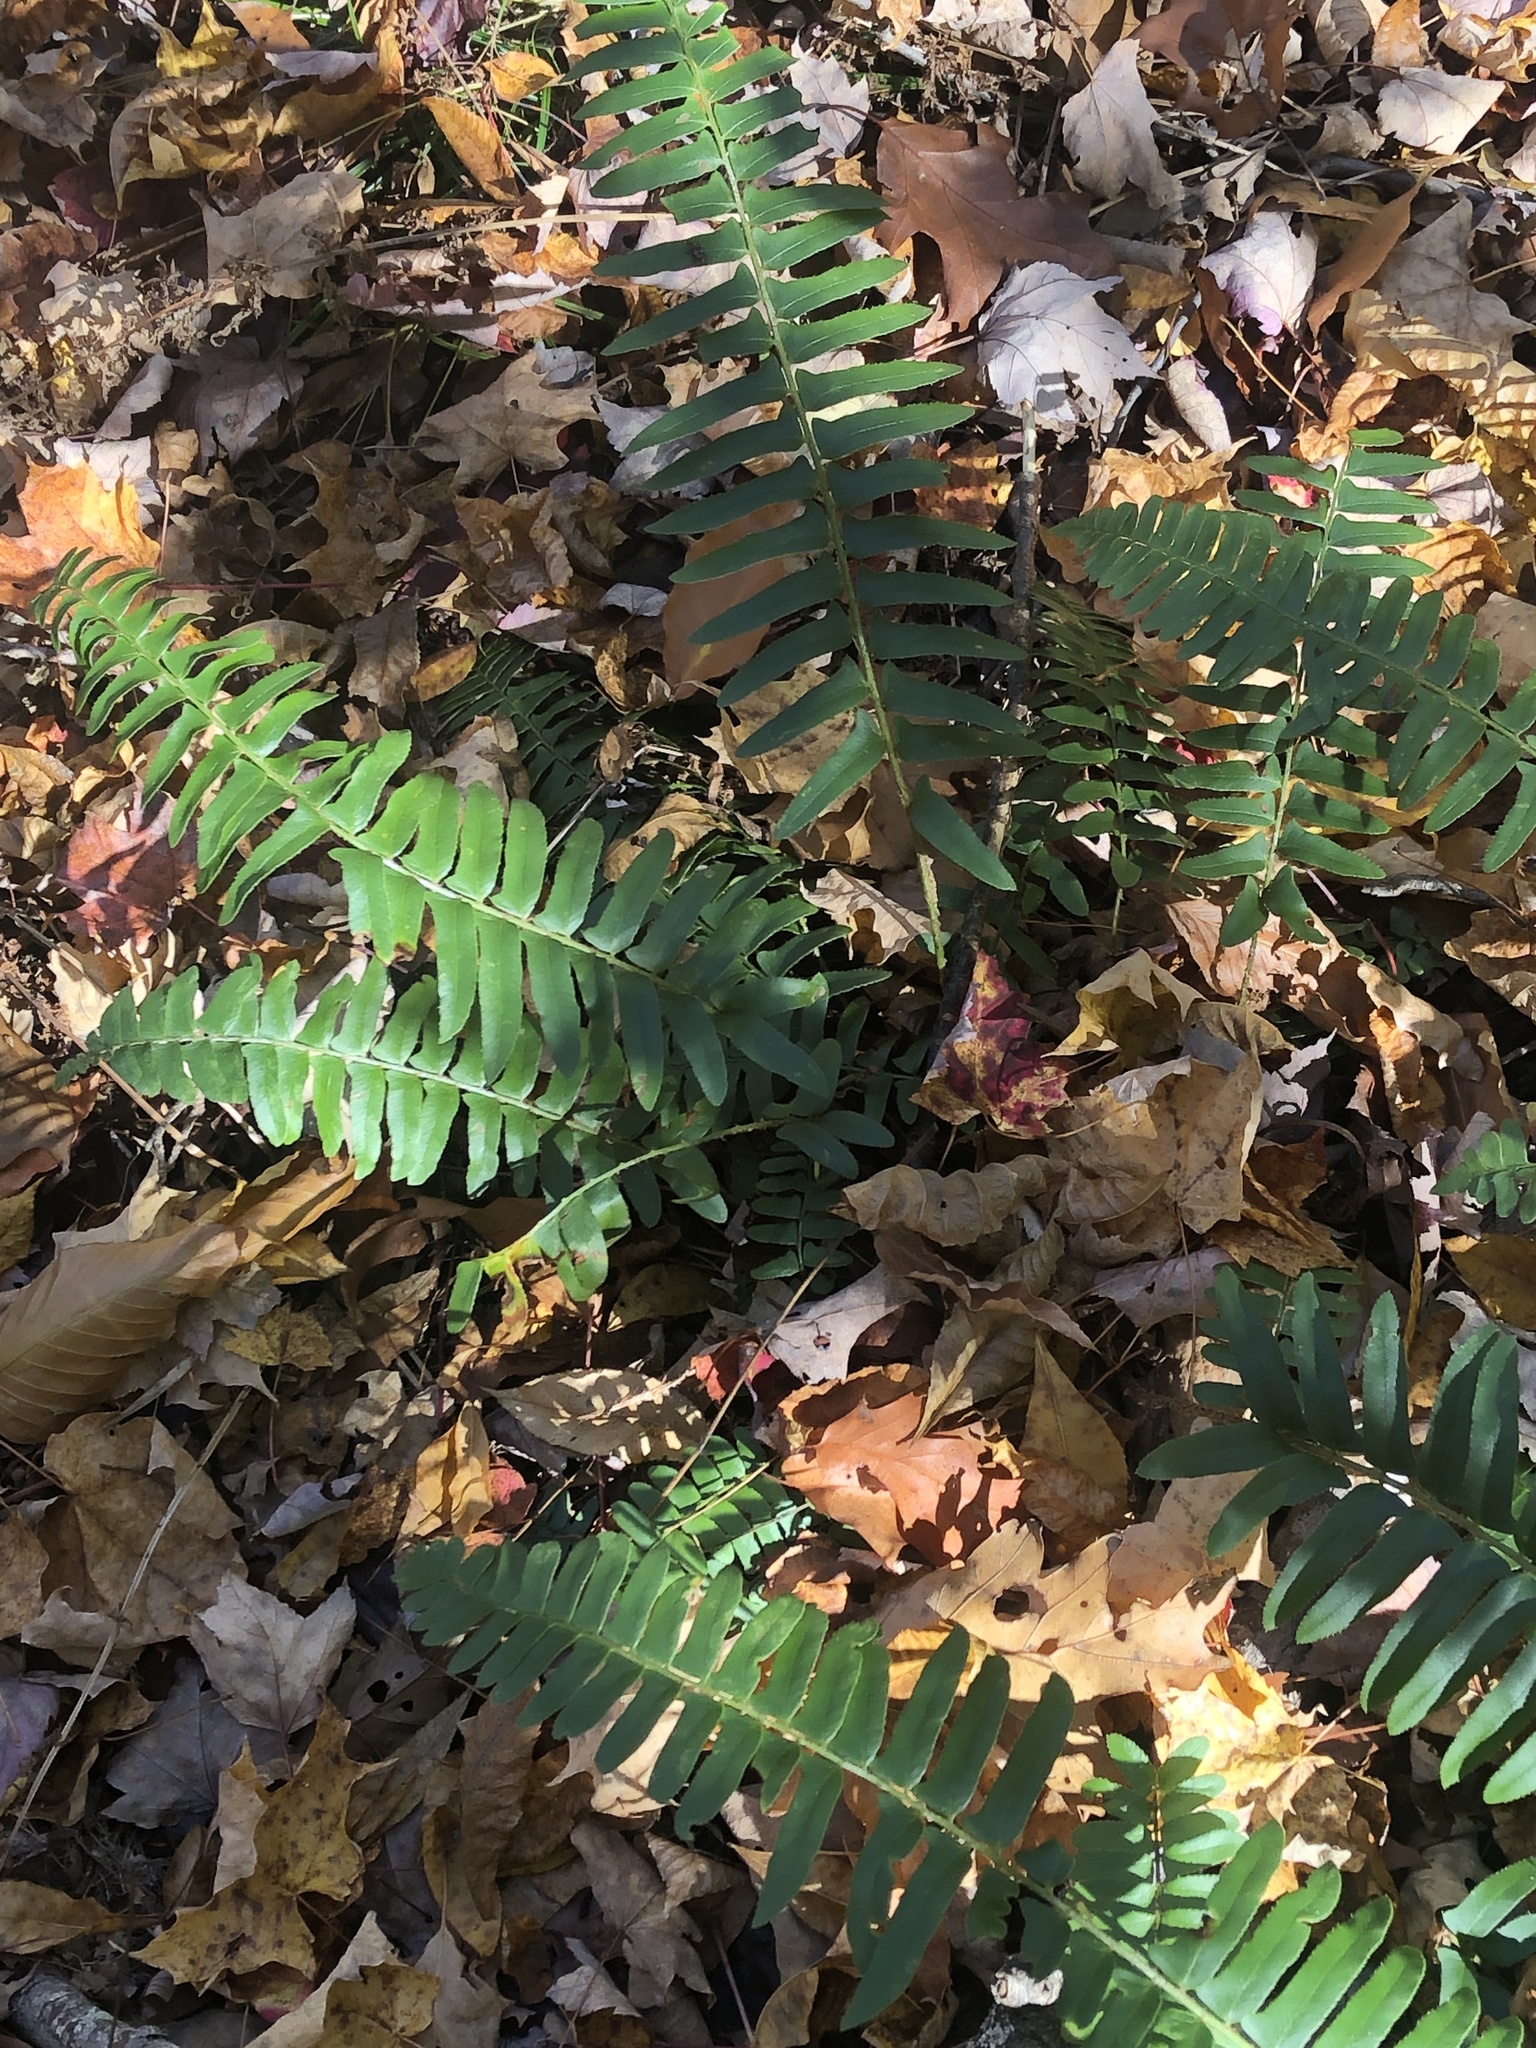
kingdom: Plantae
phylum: Tracheophyta
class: Polypodiopsida
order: Polypodiales
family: Dryopteridaceae
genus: Polystichum
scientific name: Polystichum acrostichoides
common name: Christmas fern
